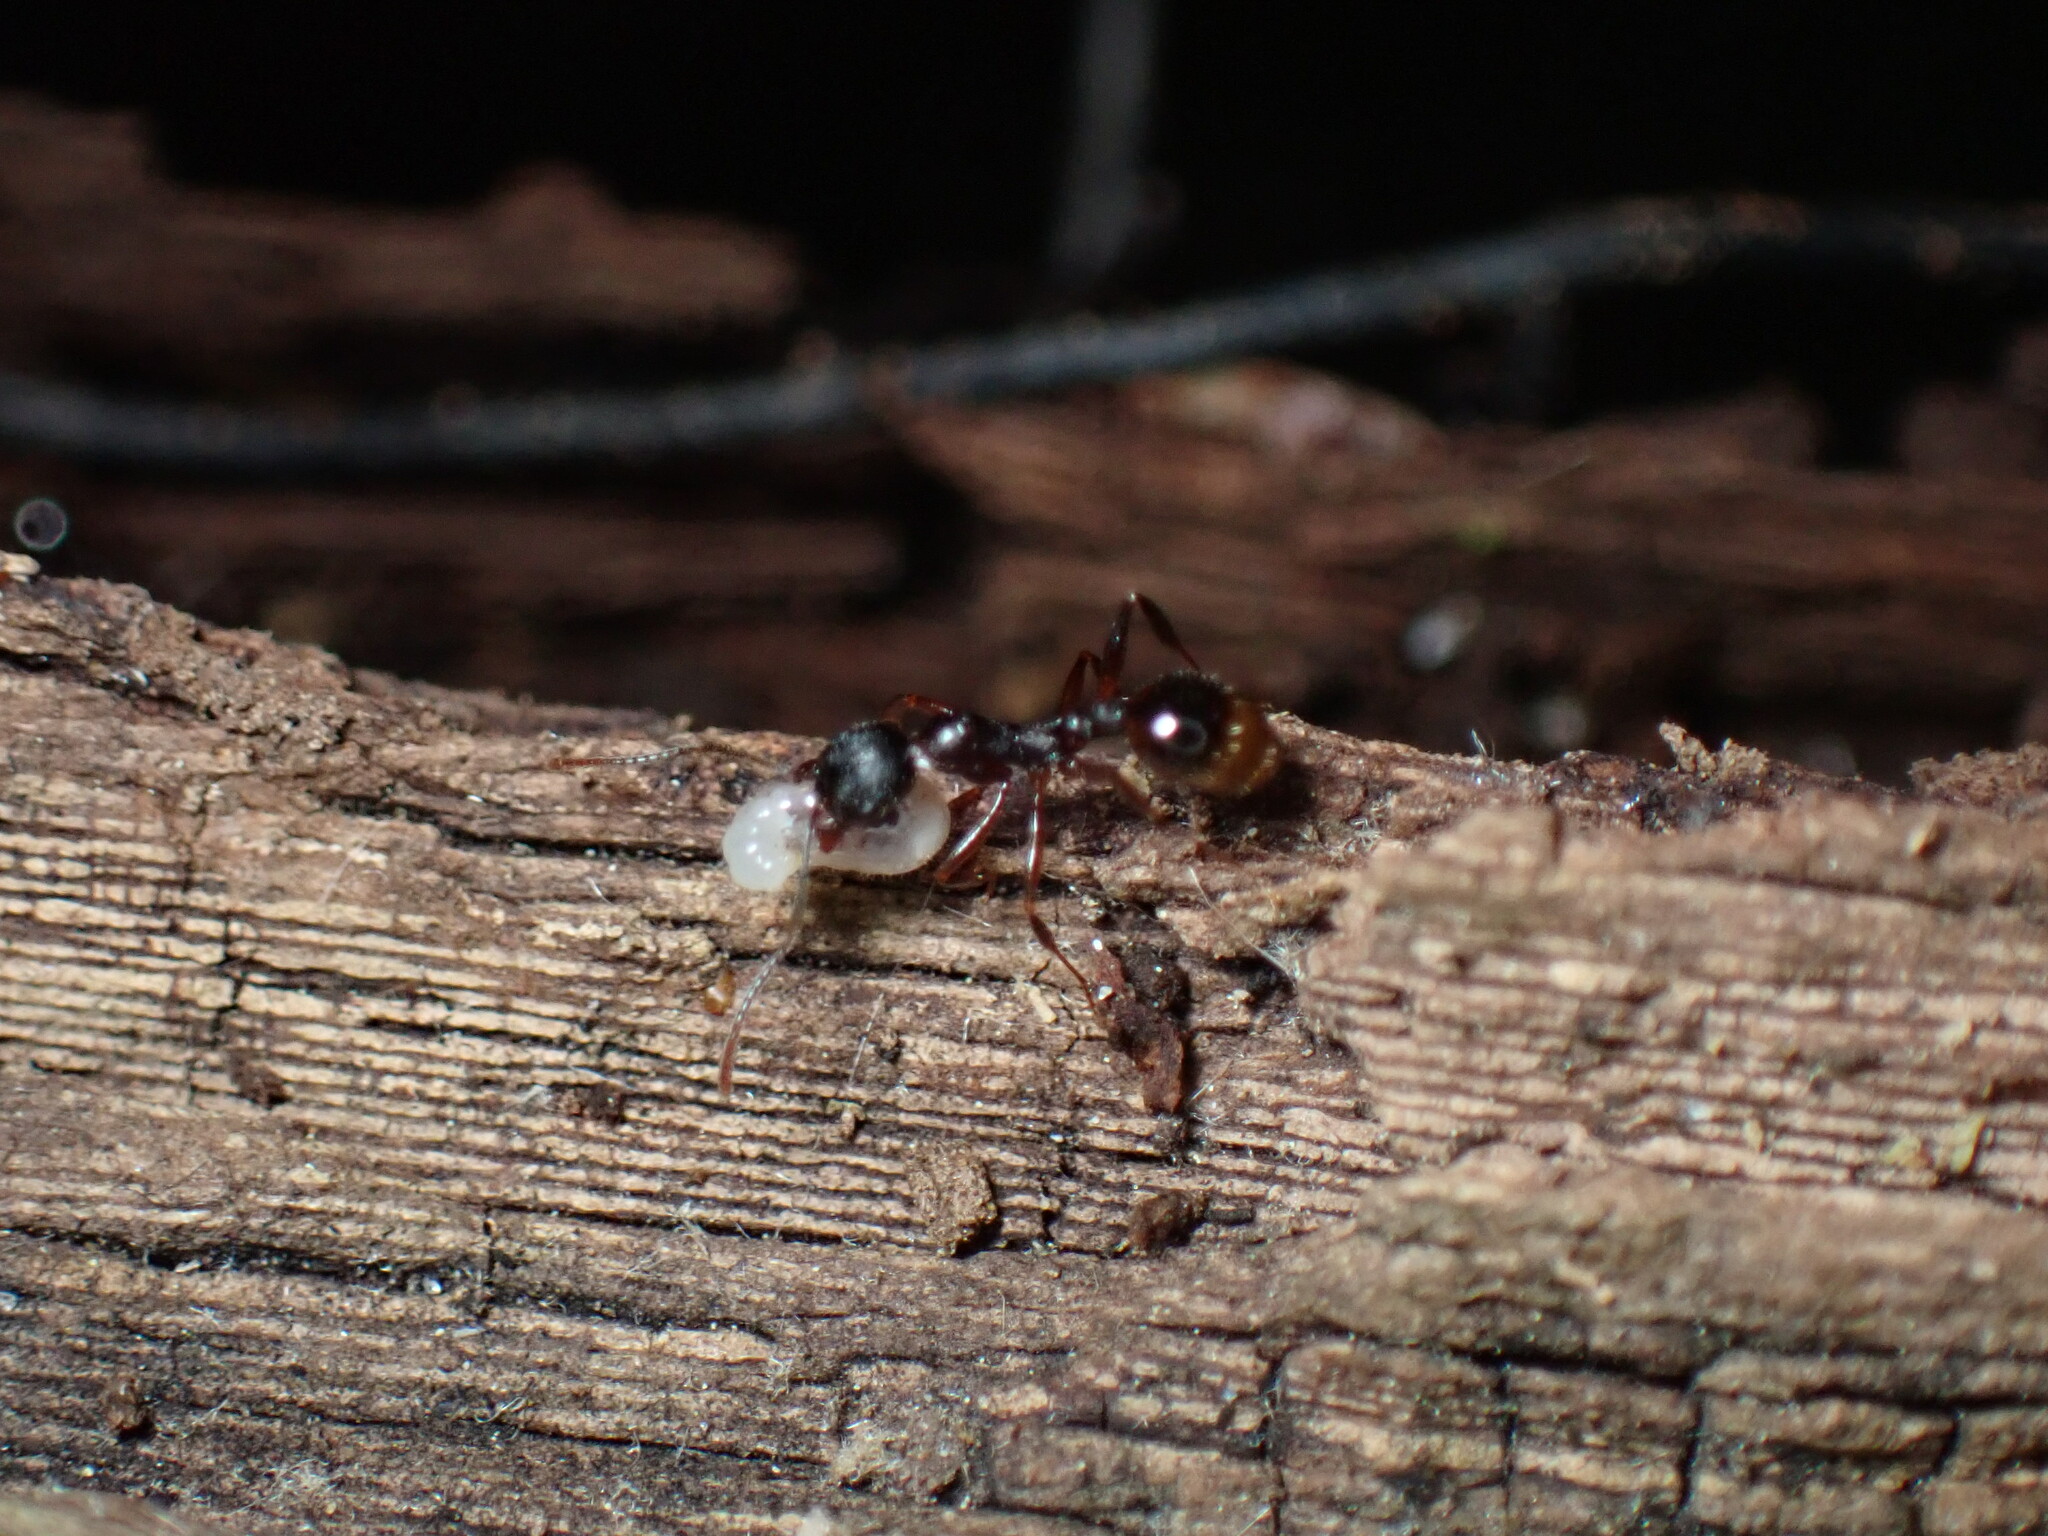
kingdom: Animalia
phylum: Arthropoda
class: Insecta
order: Hymenoptera
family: Formicidae
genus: Aphaenogaster
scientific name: Aphaenogaster picea
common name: Pitch-black collared ant
